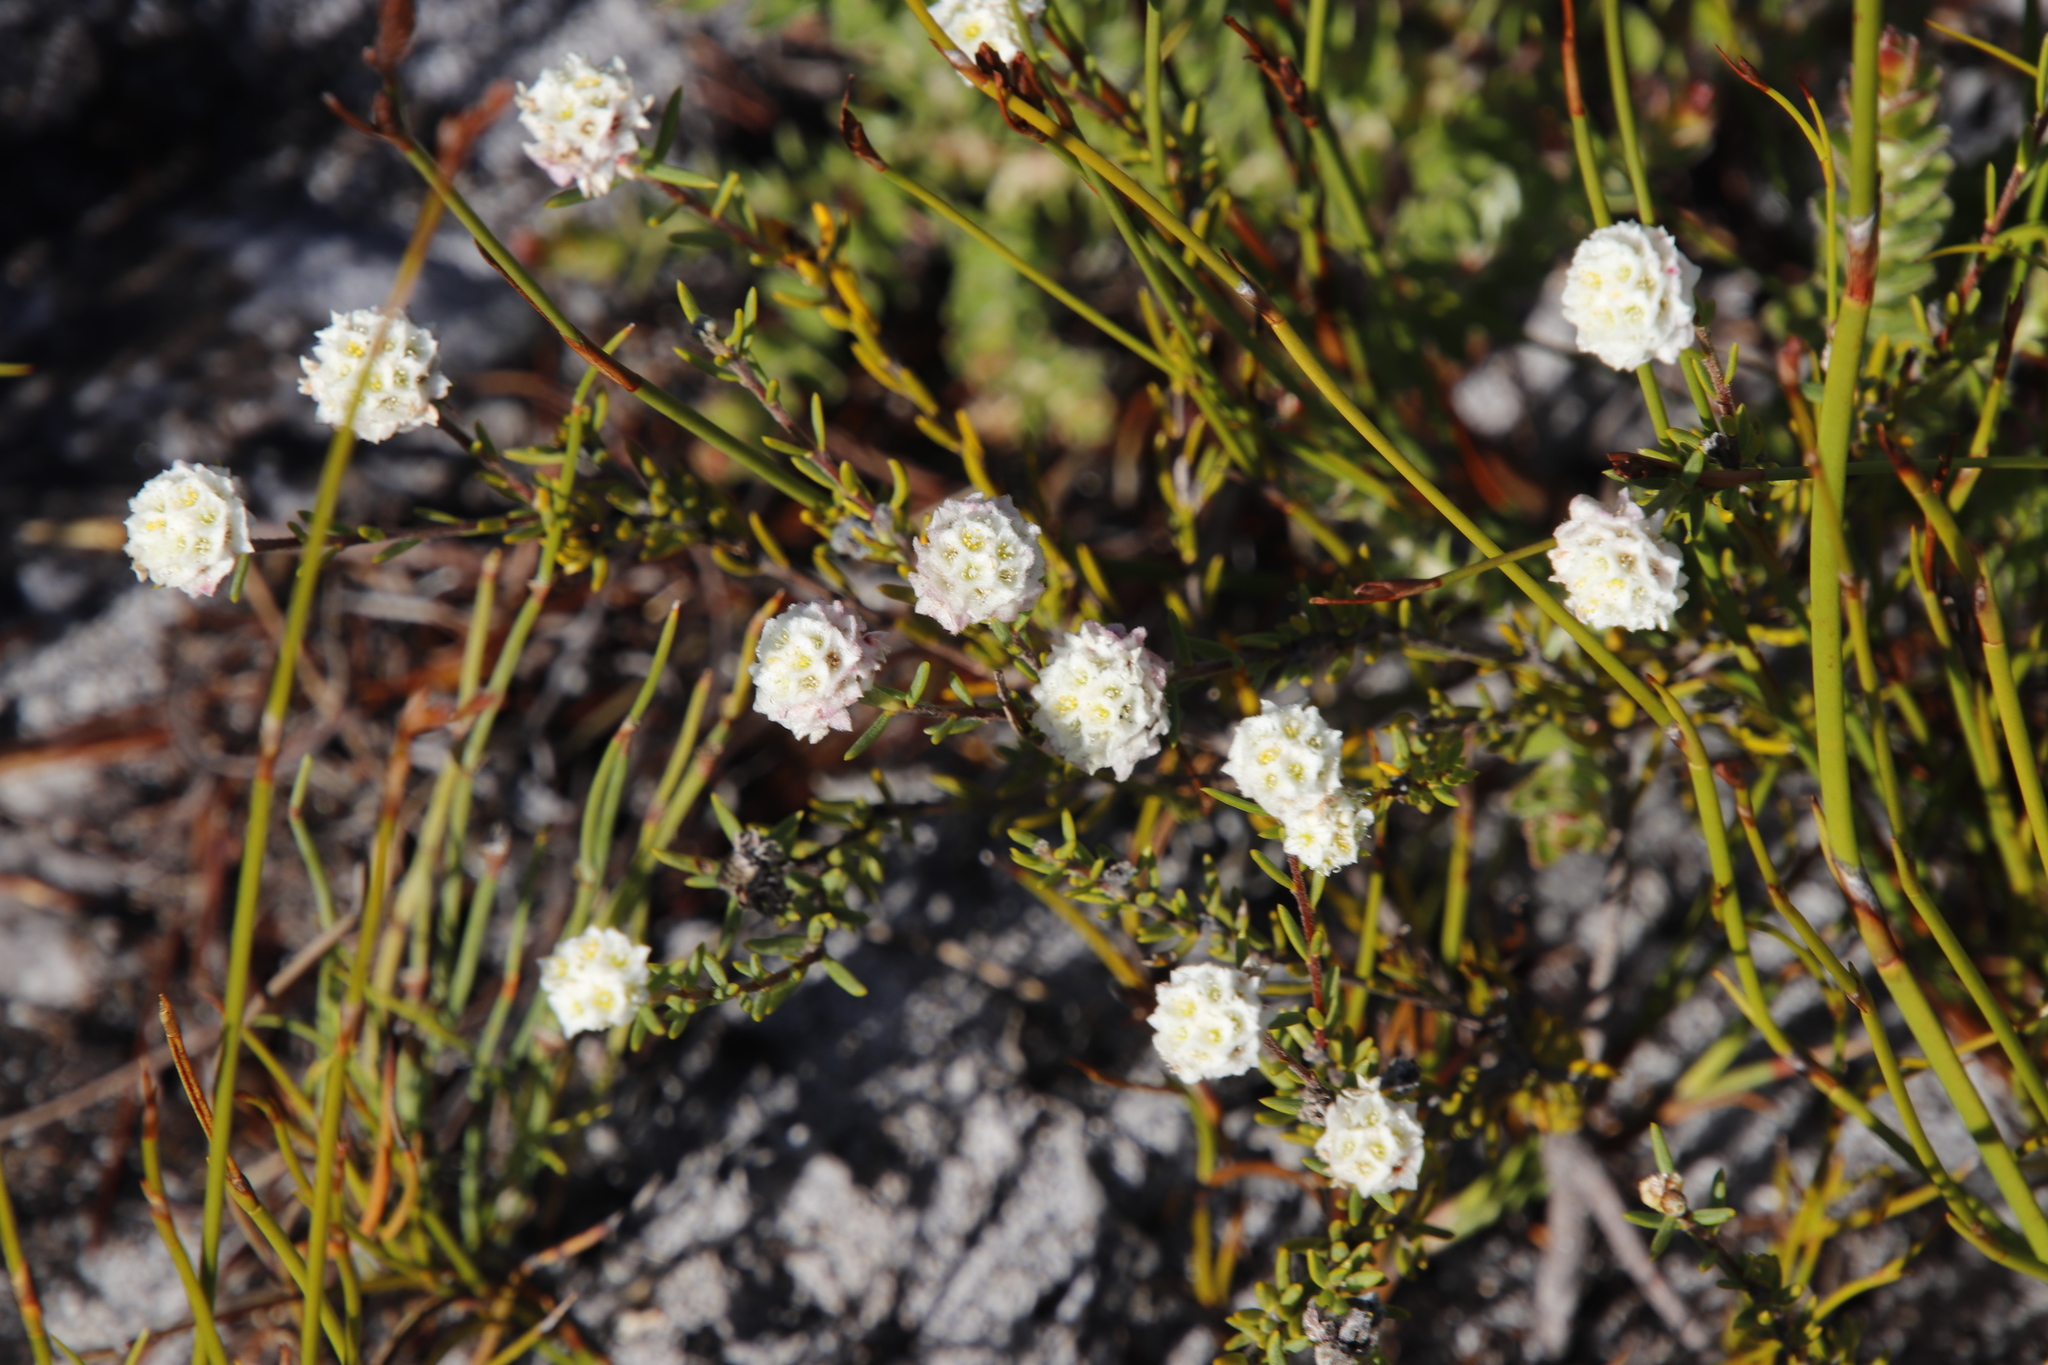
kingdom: Plantae
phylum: Tracheophyta
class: Magnoliopsida
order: Malvales
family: Thymelaeaceae
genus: Lachnaea
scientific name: Lachnaea densiflora
